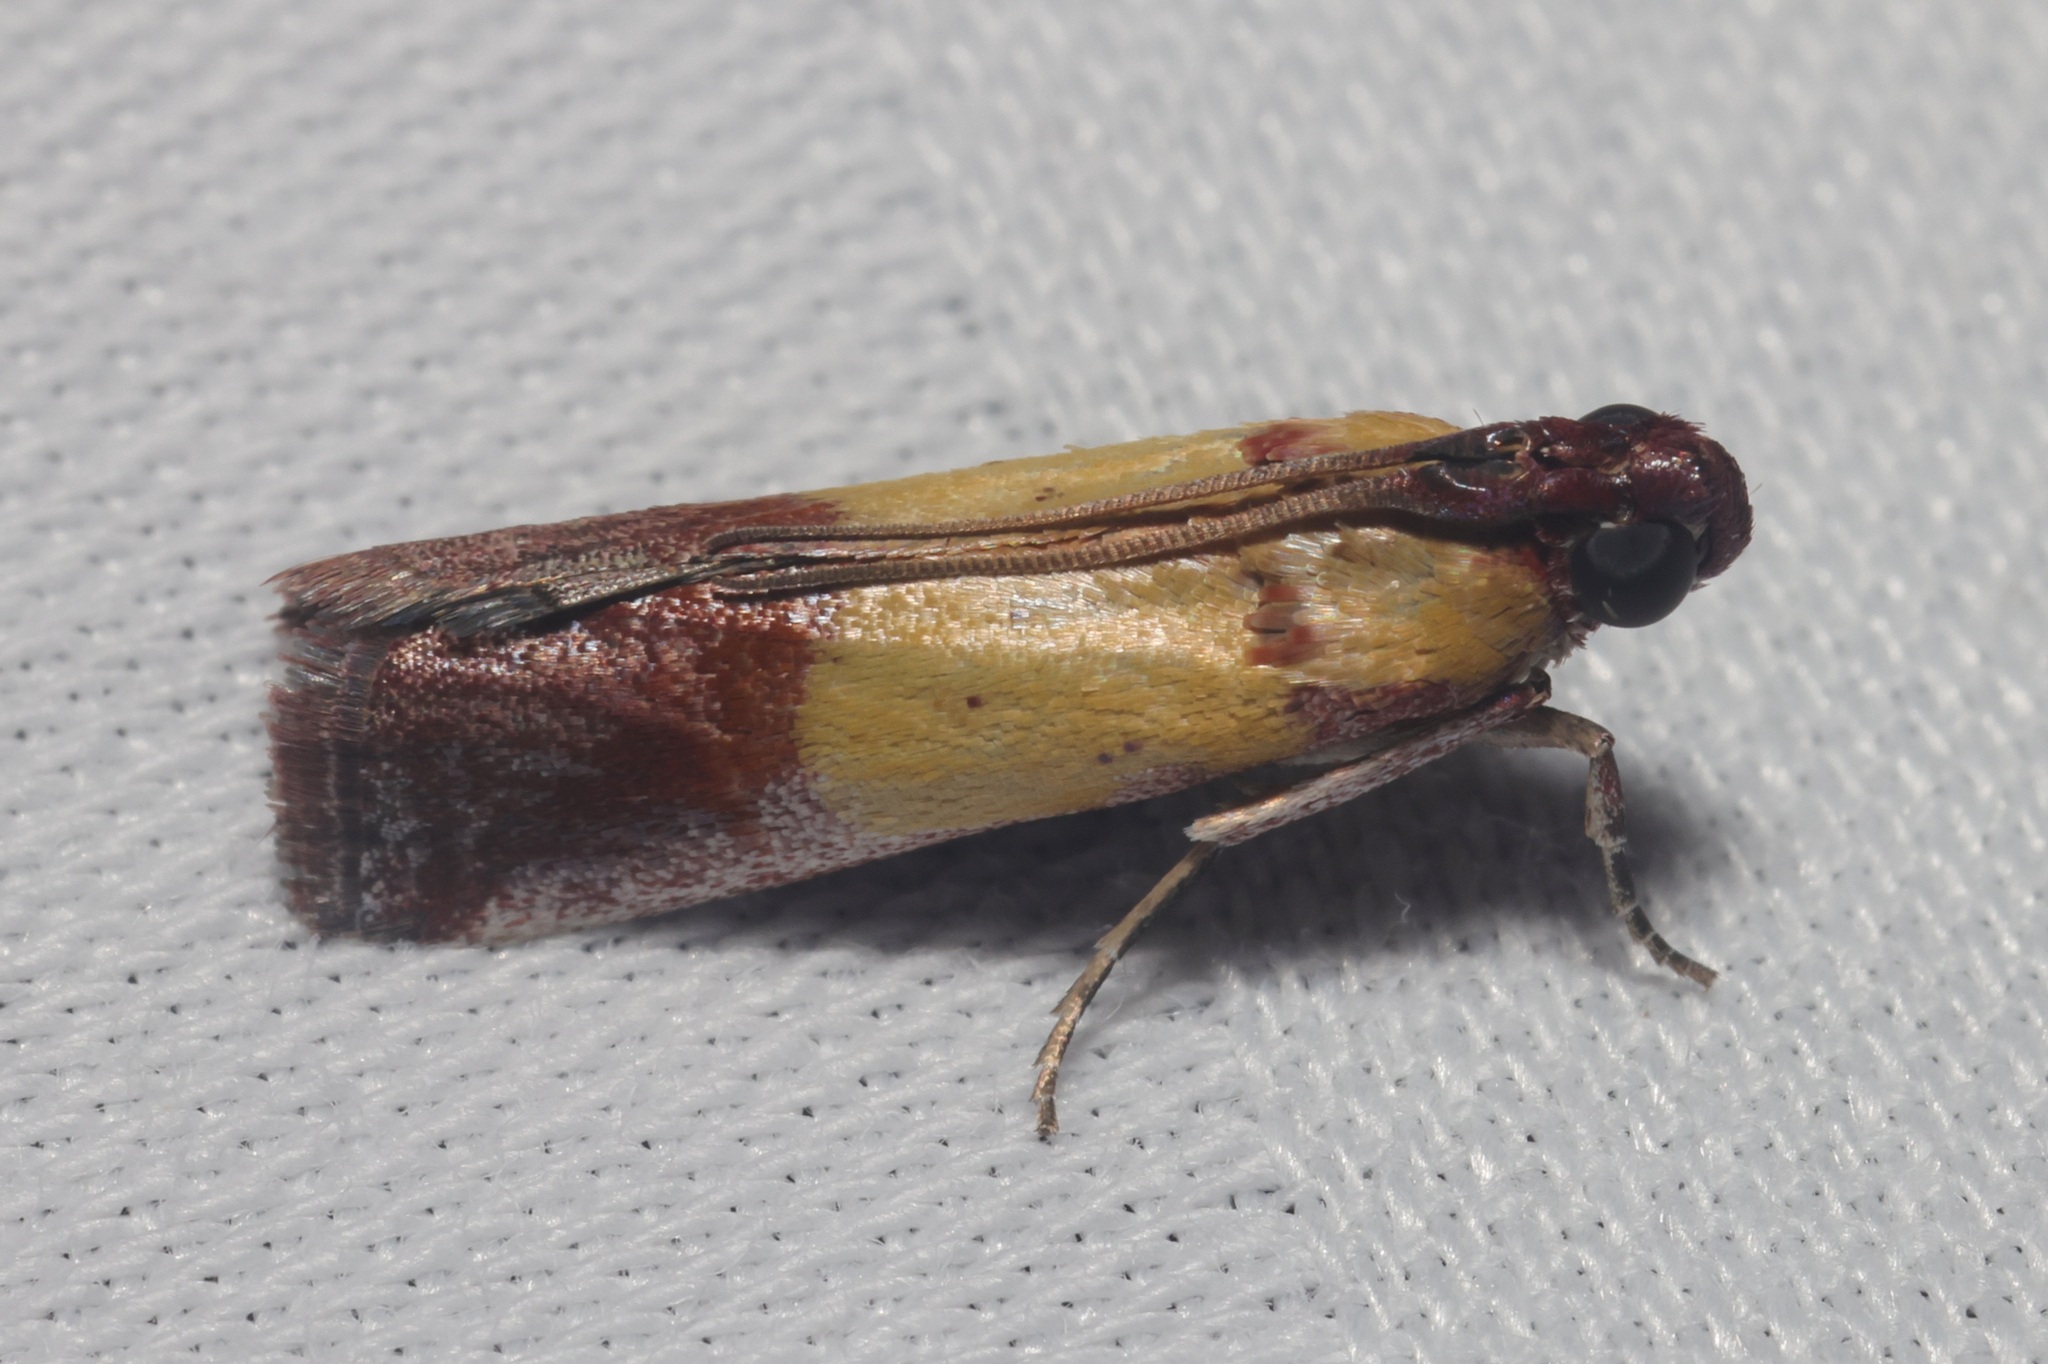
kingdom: Animalia
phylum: Arthropoda
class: Insecta
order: Lepidoptera
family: Pyralidae
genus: Piesmopoda
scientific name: Piesmopoda
